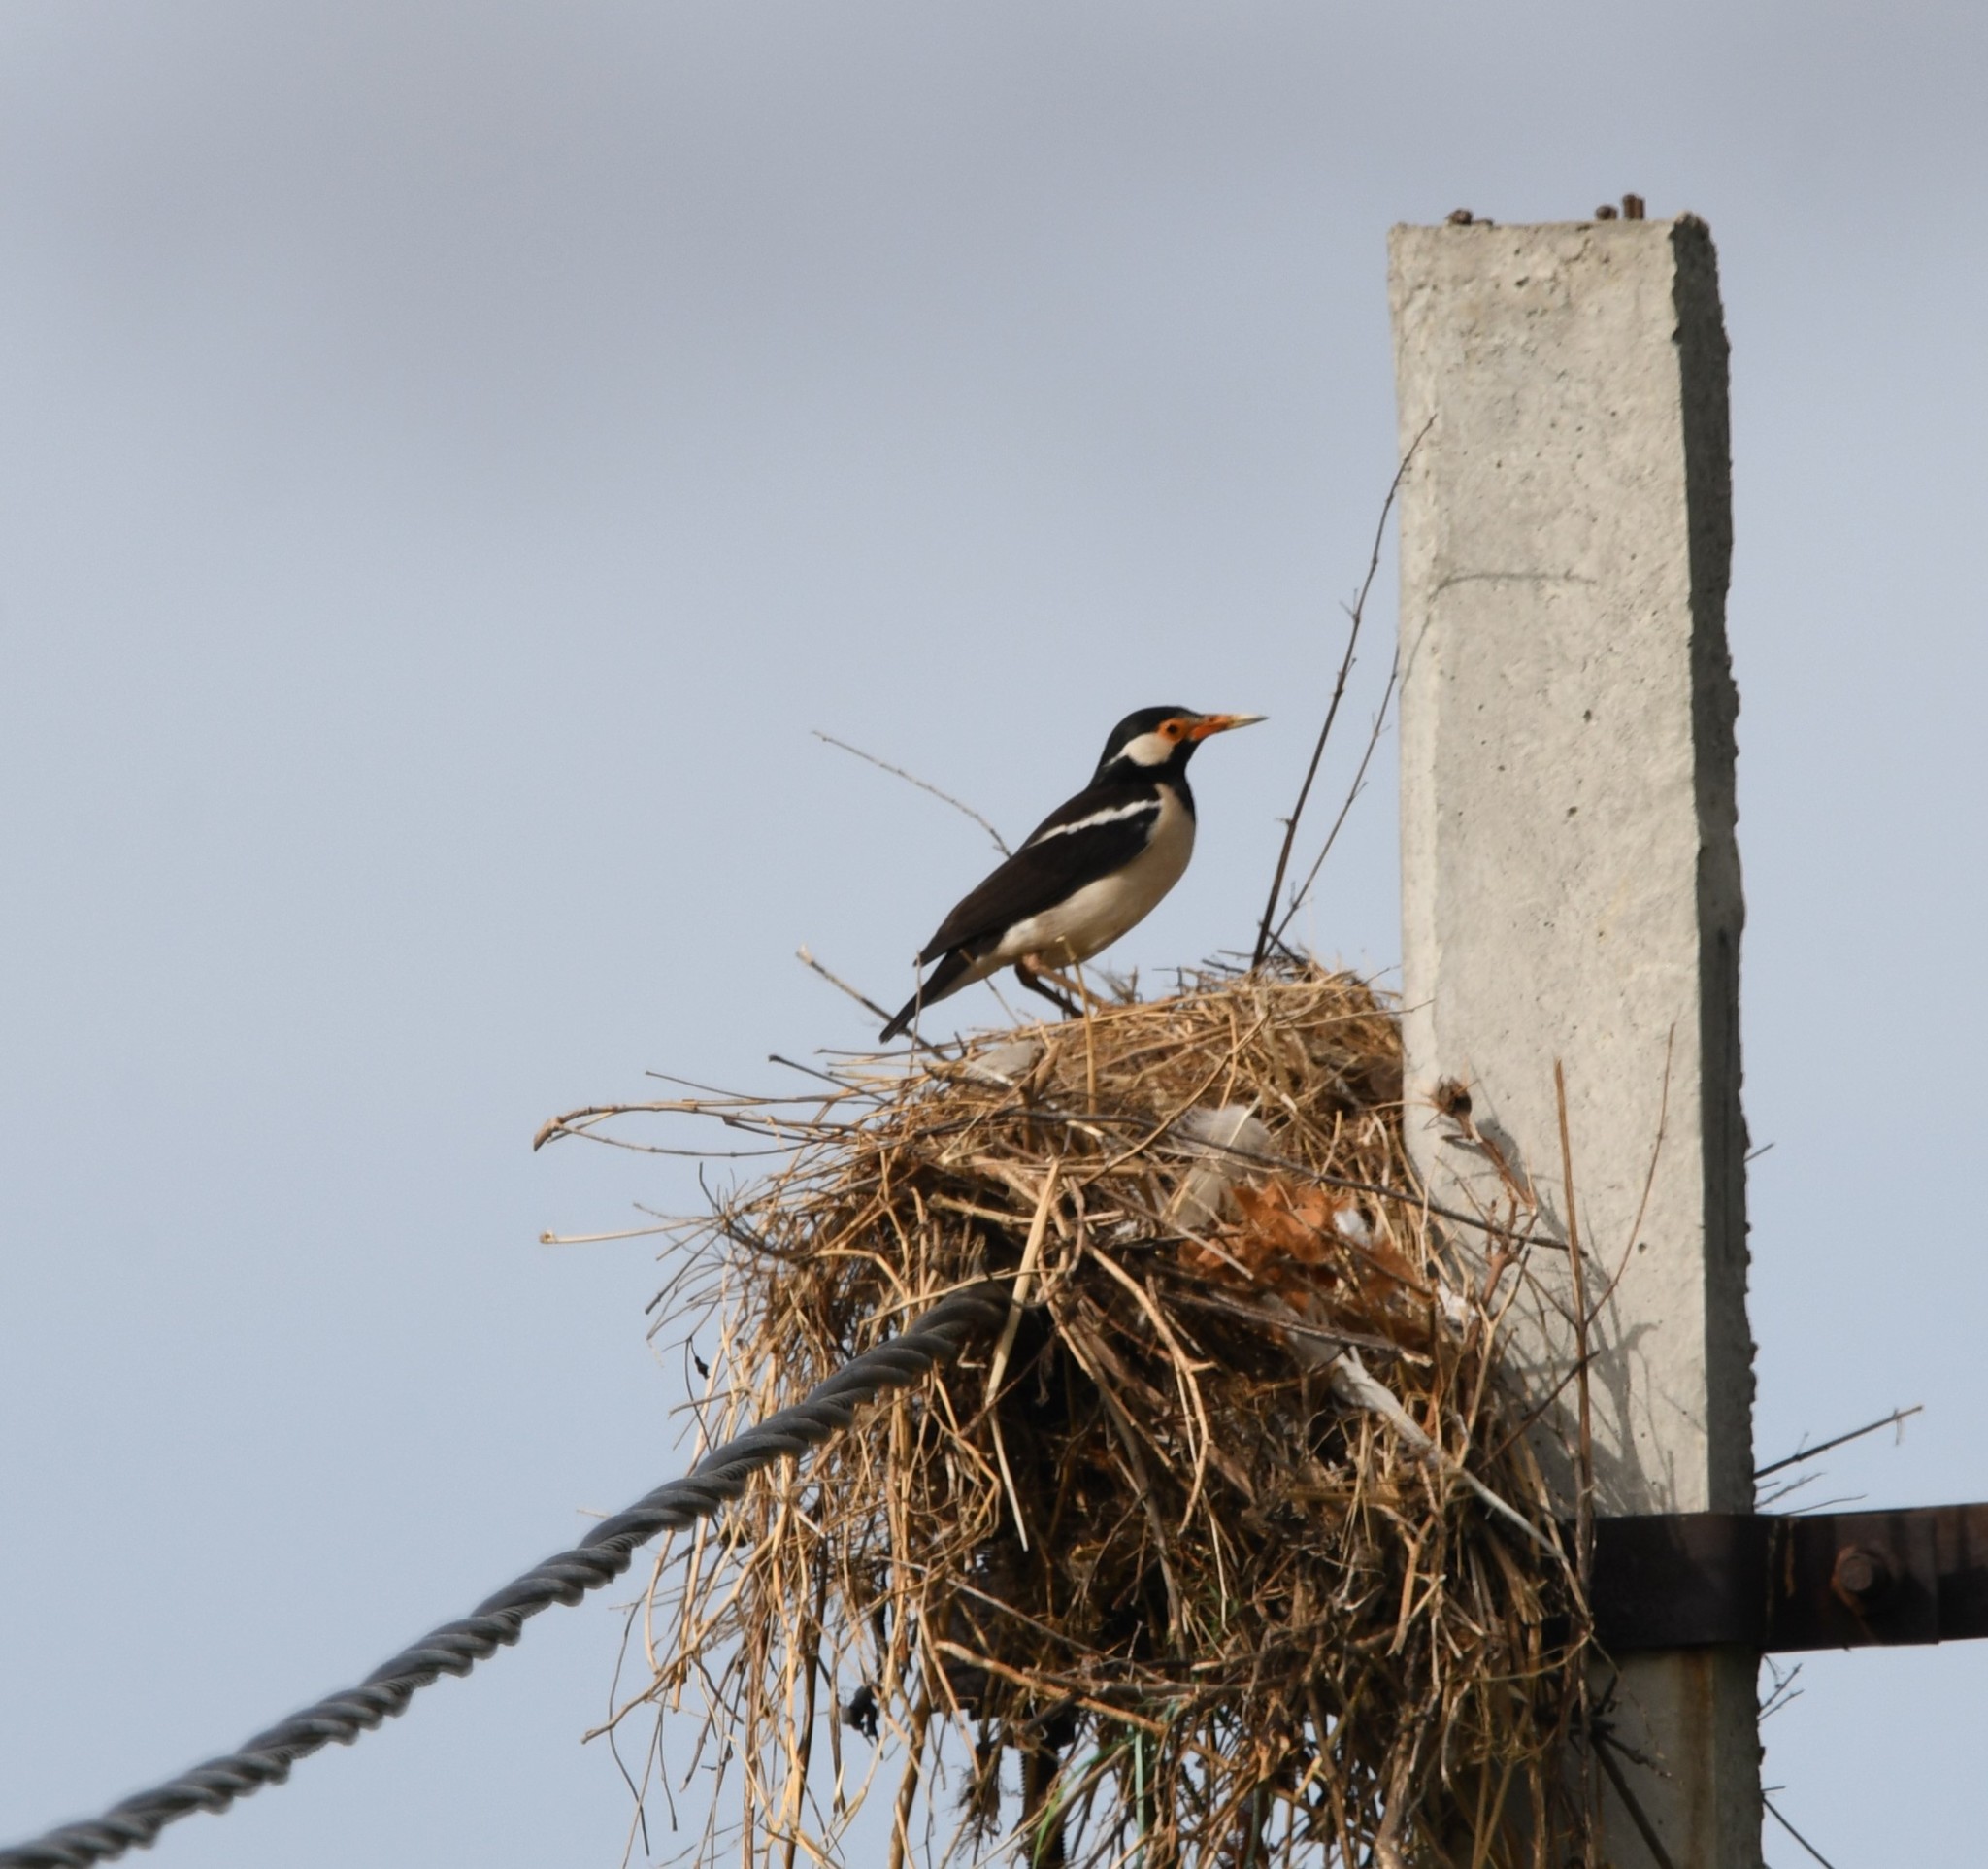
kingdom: Animalia
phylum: Chordata
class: Aves
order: Passeriformes
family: Sturnidae
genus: Gracupica
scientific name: Gracupica contra
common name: Pied myna
